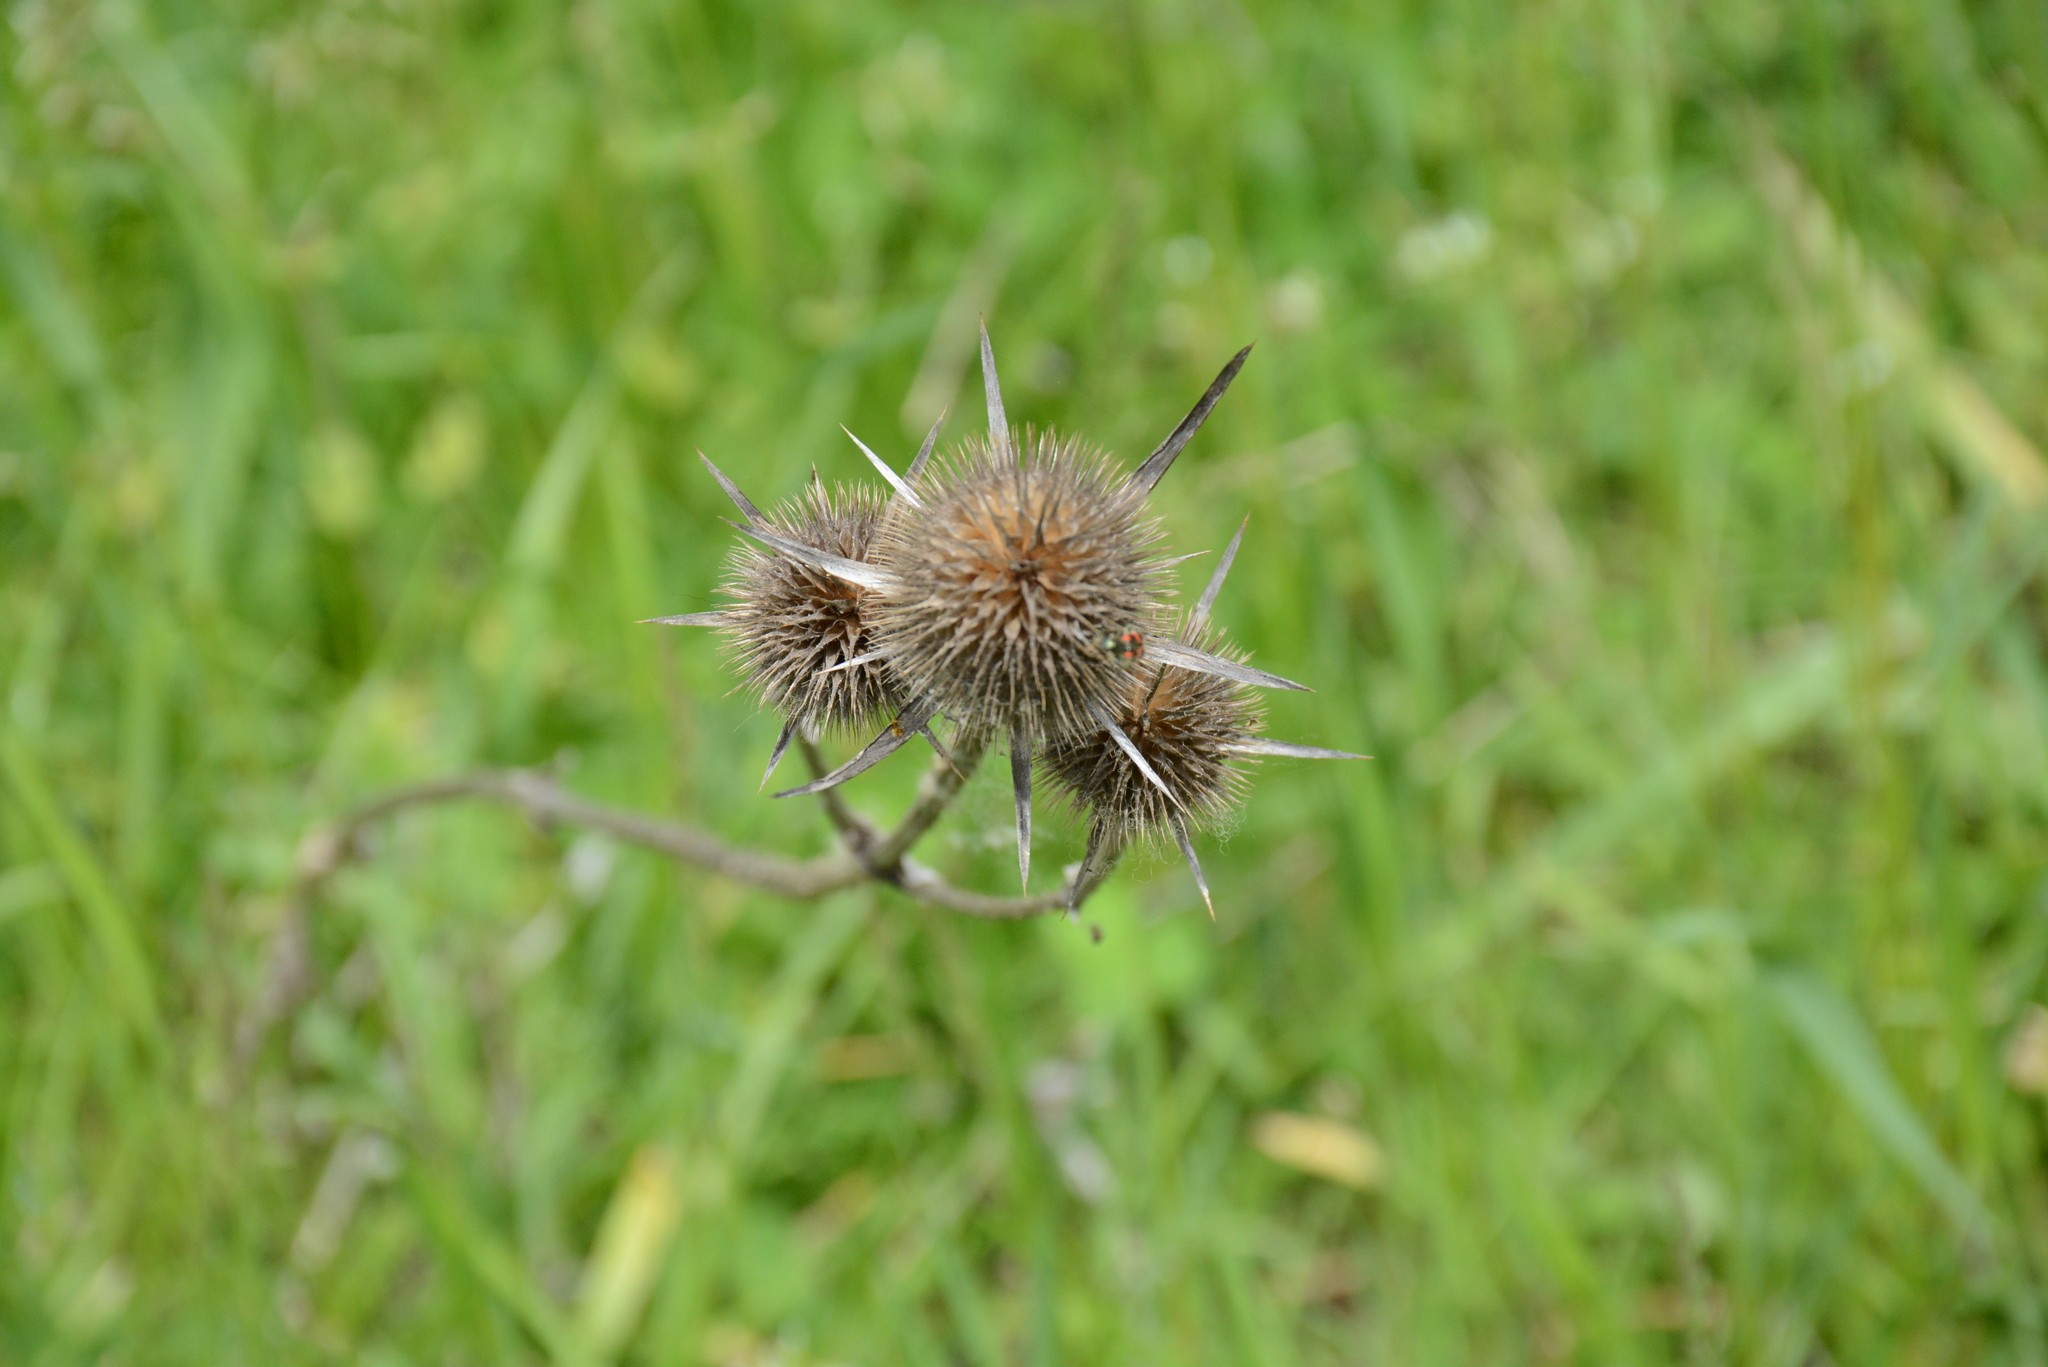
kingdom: Plantae
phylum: Tracheophyta
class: Magnoliopsida
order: Dipsacales
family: Caprifoliaceae
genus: Dipsacus
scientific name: Dipsacus laciniatus
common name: Cut-leaved teasel
